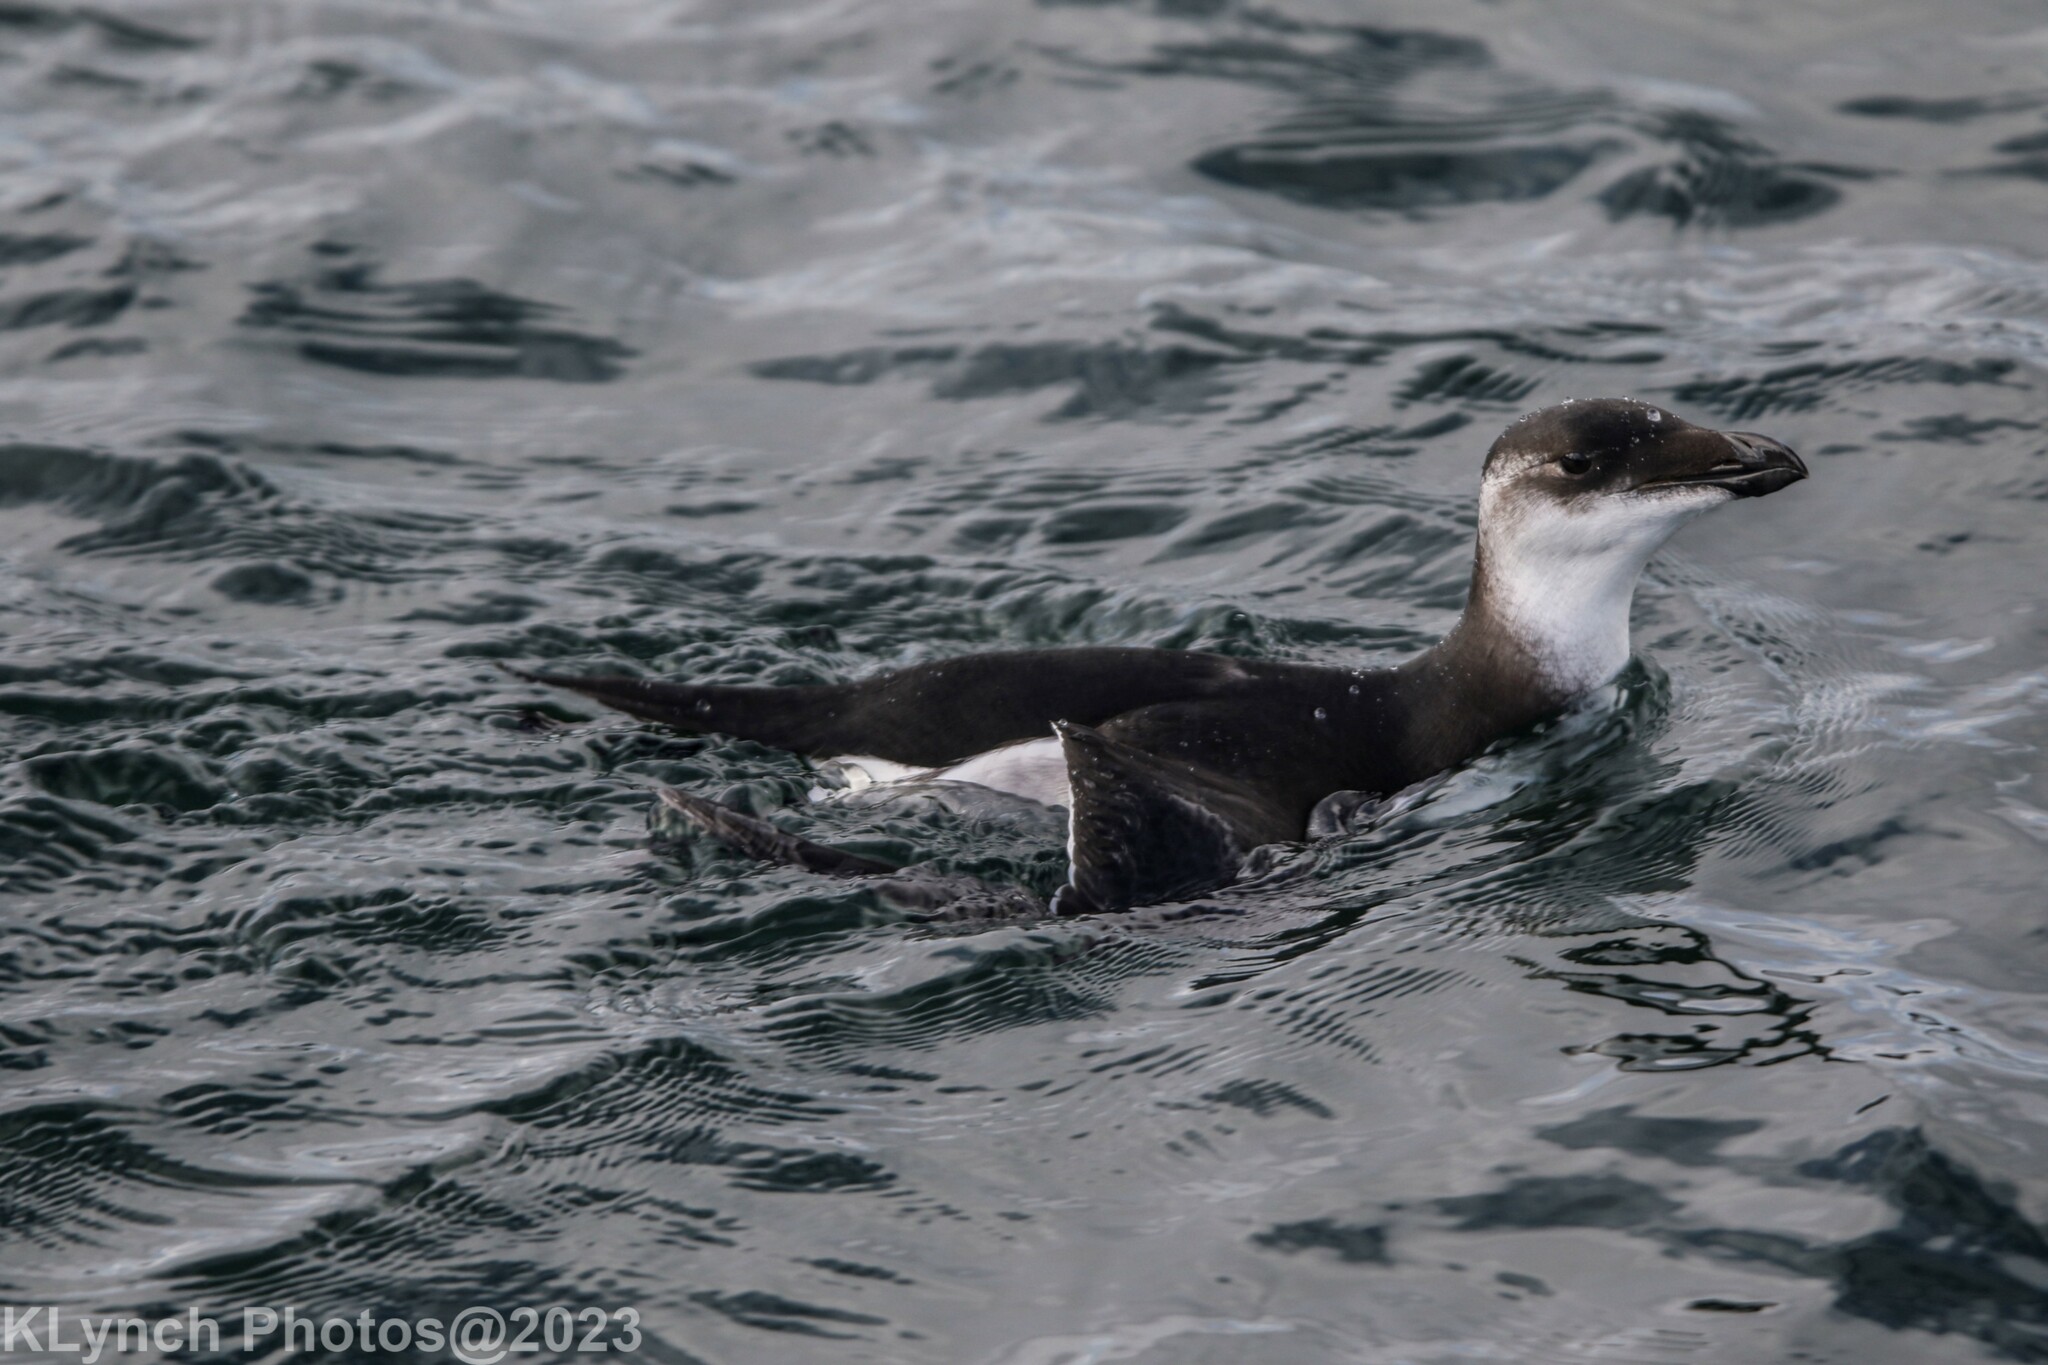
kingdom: Animalia
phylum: Chordata
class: Aves
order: Charadriiformes
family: Alcidae
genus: Alca
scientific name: Alca torda
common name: Razorbill
